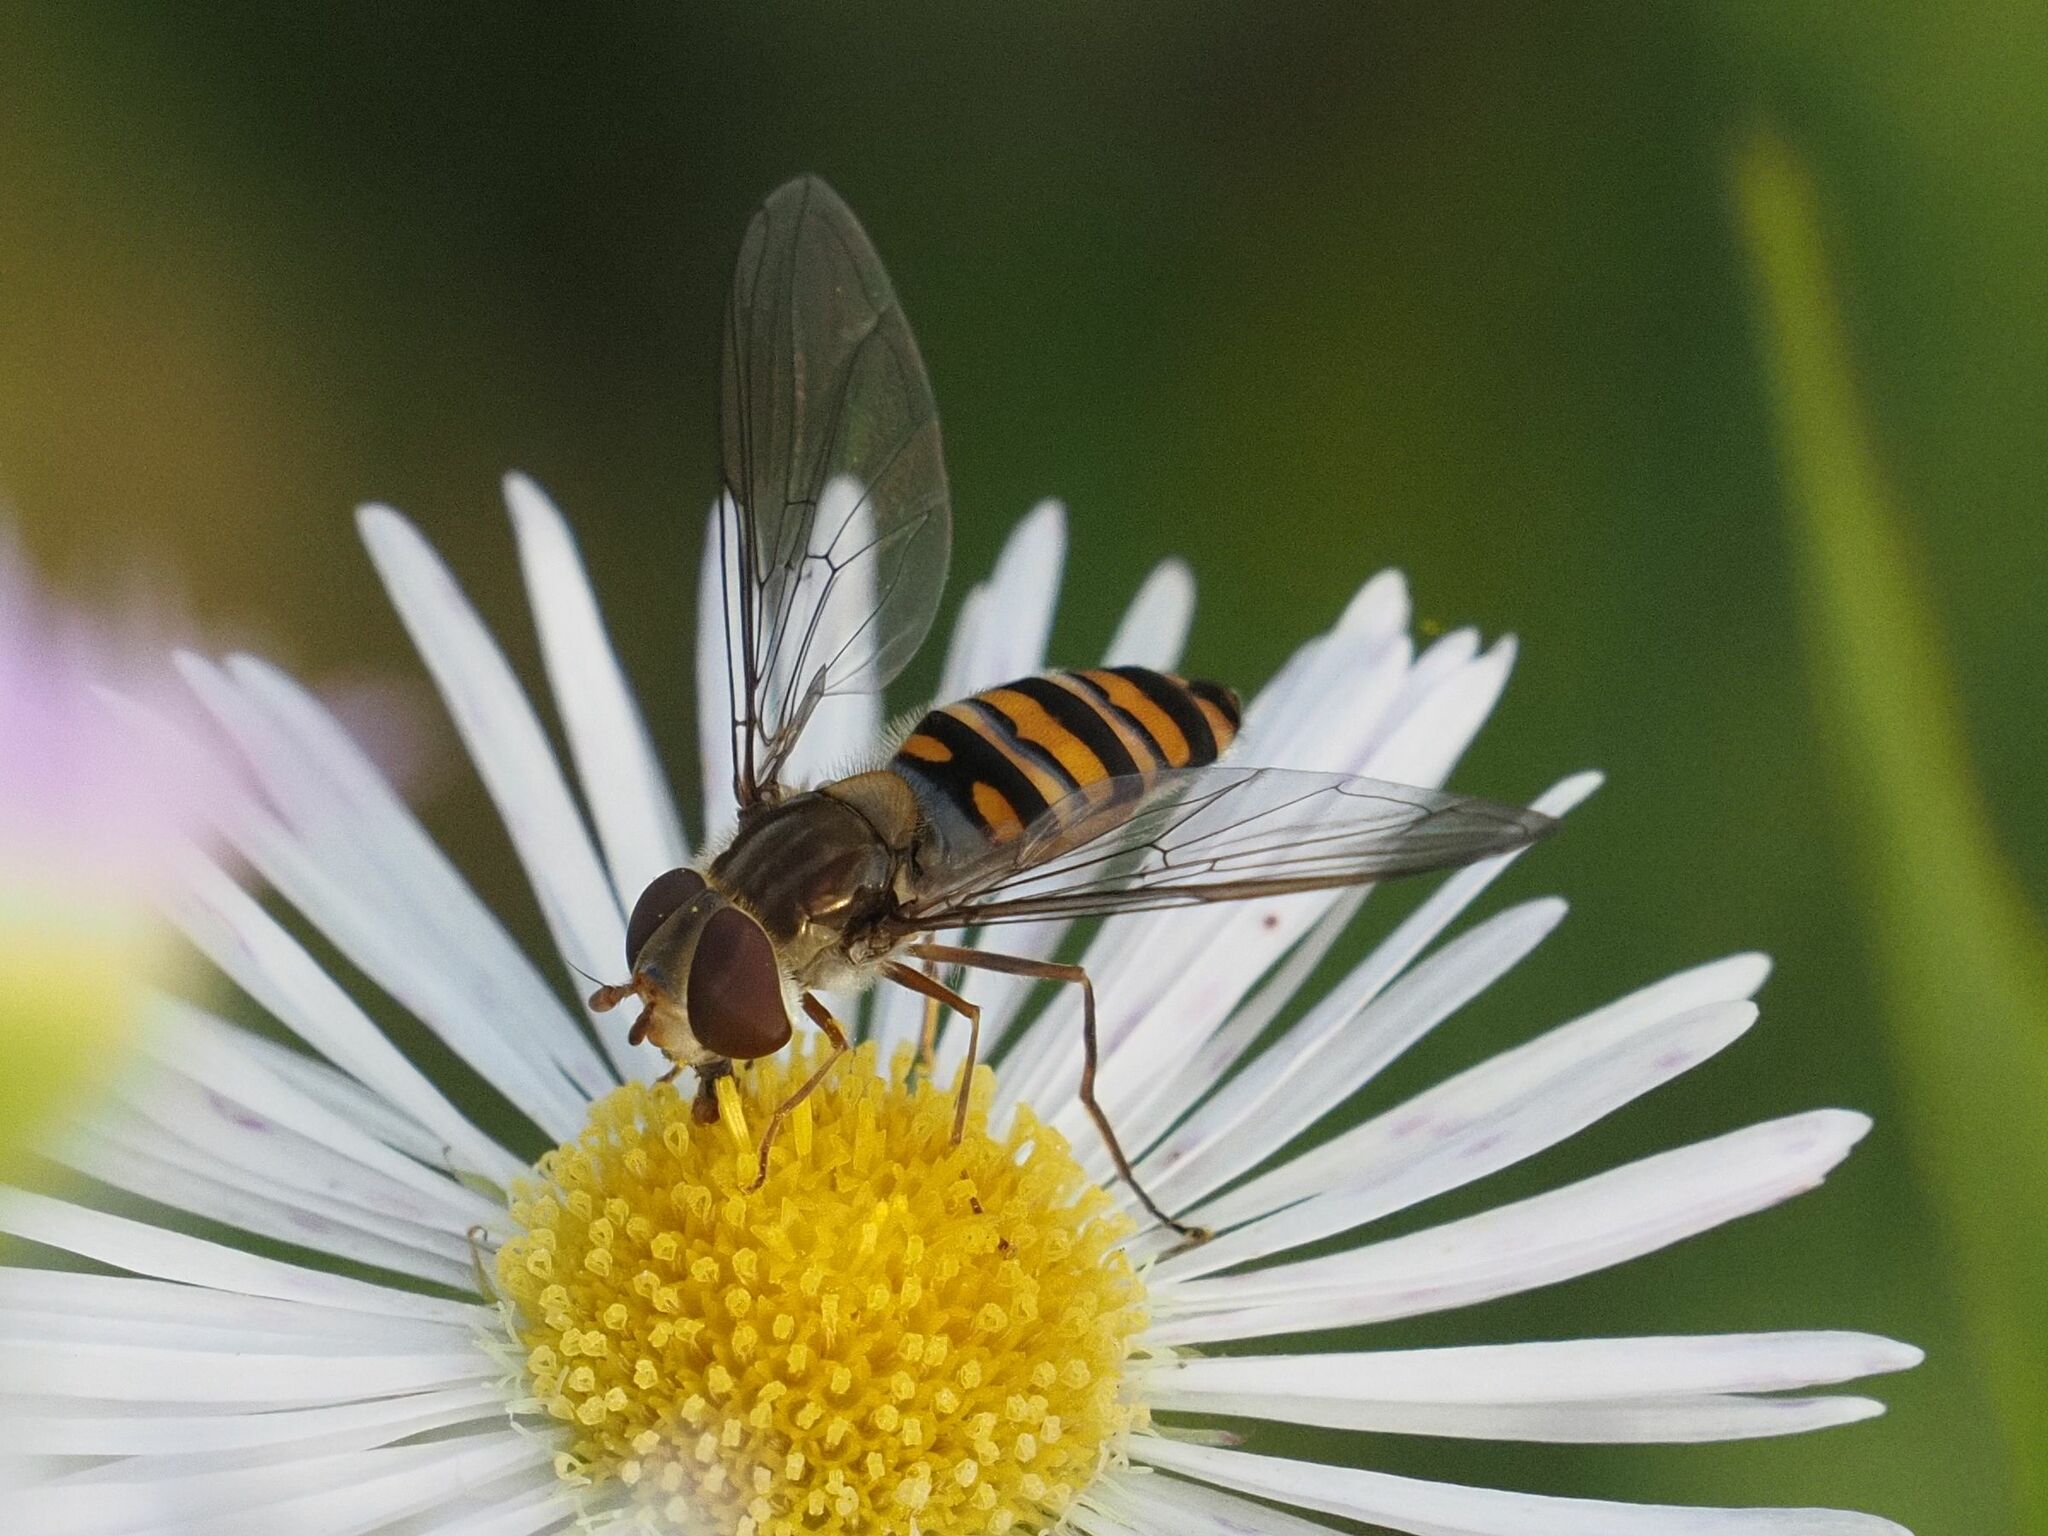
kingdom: Animalia
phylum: Arthropoda
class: Insecta
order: Diptera
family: Syrphidae
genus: Episyrphus
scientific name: Episyrphus balteatus
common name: Marmalade hoverfly
